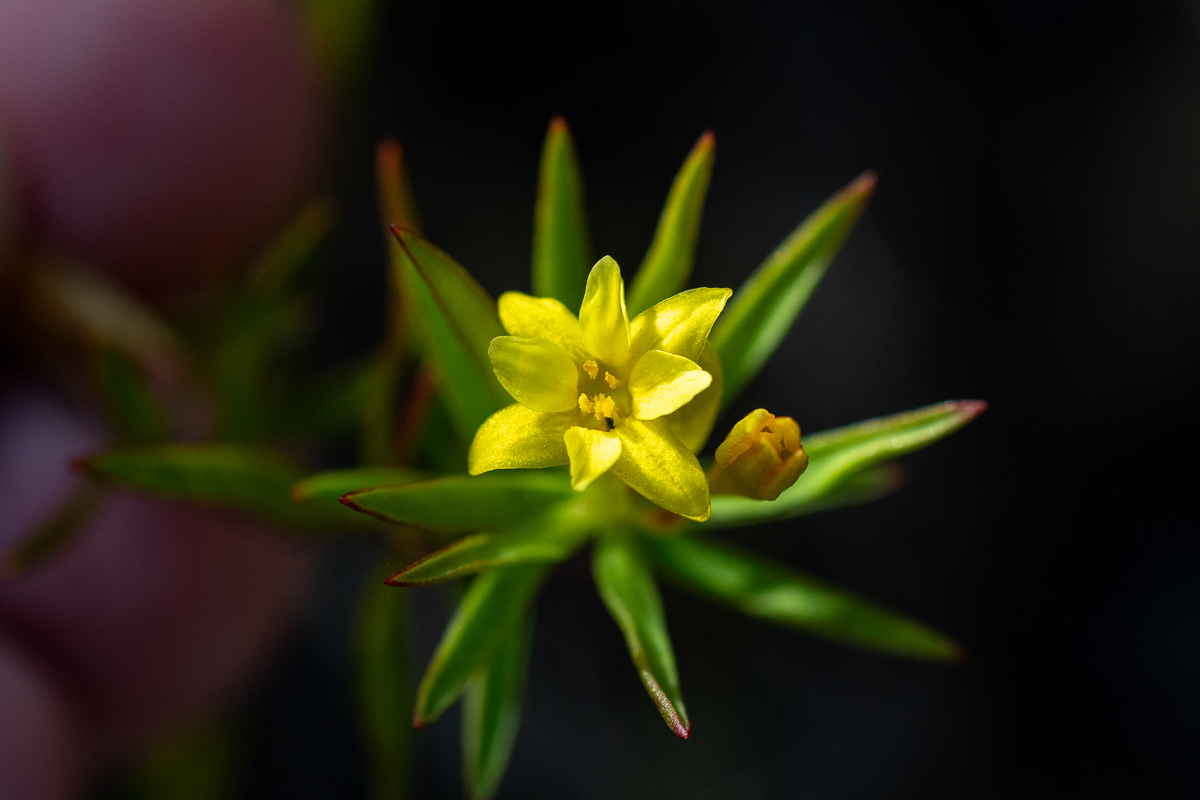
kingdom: Plantae
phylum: Tracheophyta
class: Magnoliopsida
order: Malvales
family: Thymelaeaceae
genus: Gnidia
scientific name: Gnidia juniperifolia
